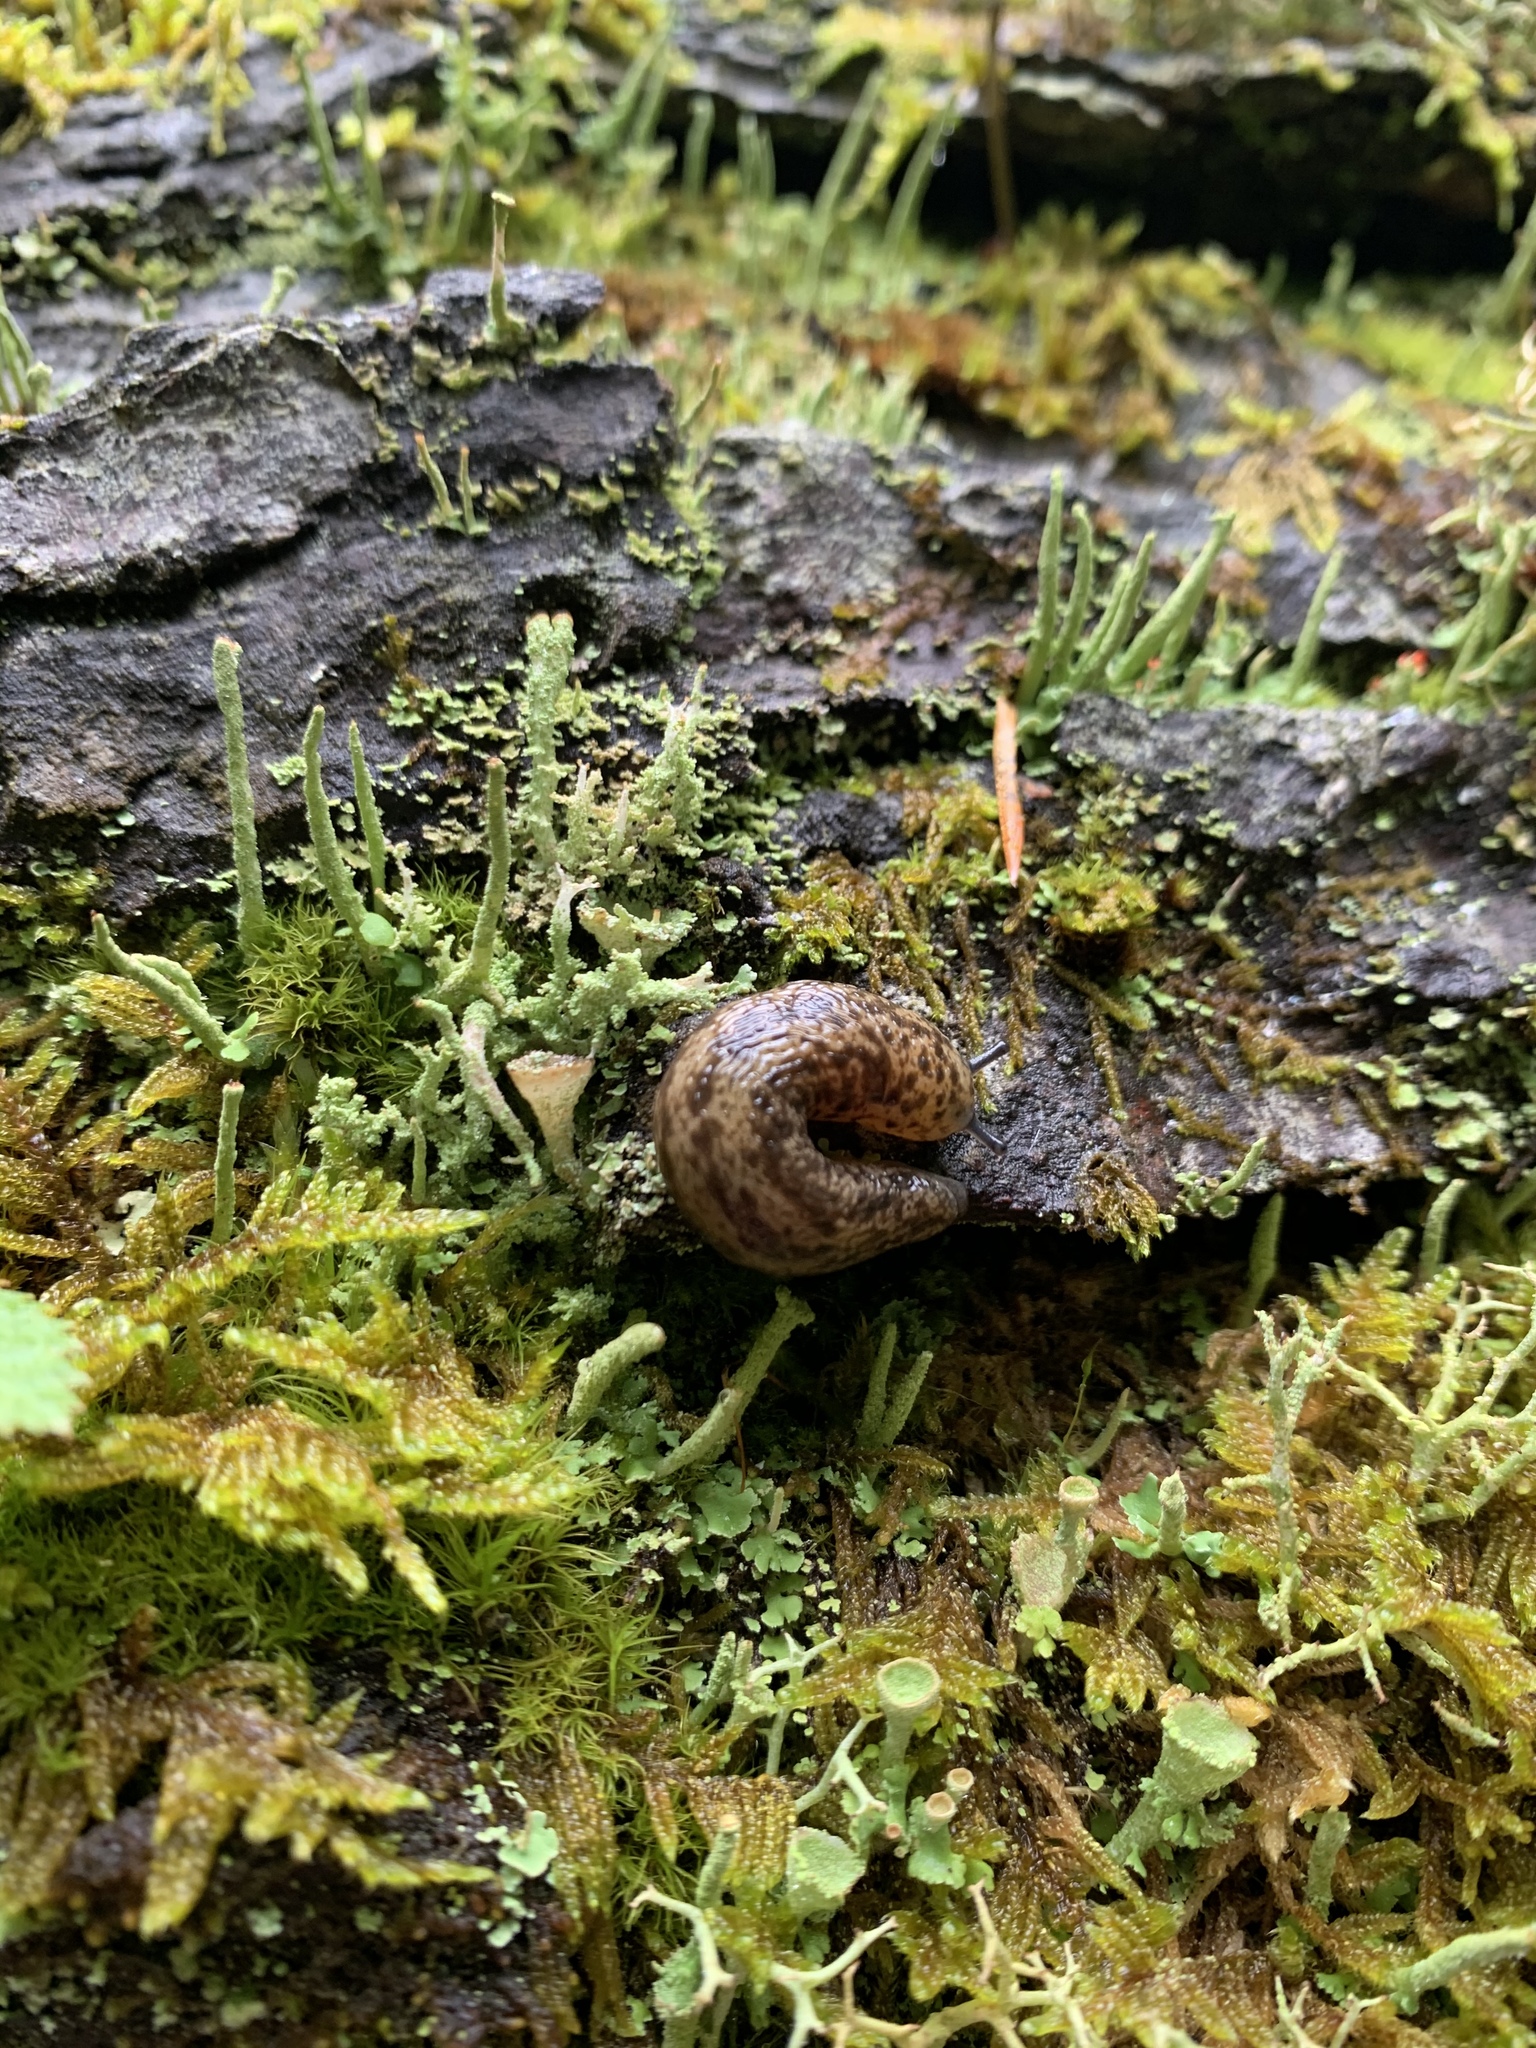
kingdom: Animalia
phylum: Mollusca
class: Gastropoda
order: Stylommatophora
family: Philomycidae
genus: Philomycus
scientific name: Philomycus flexuolaris
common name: Winding mantleslug
